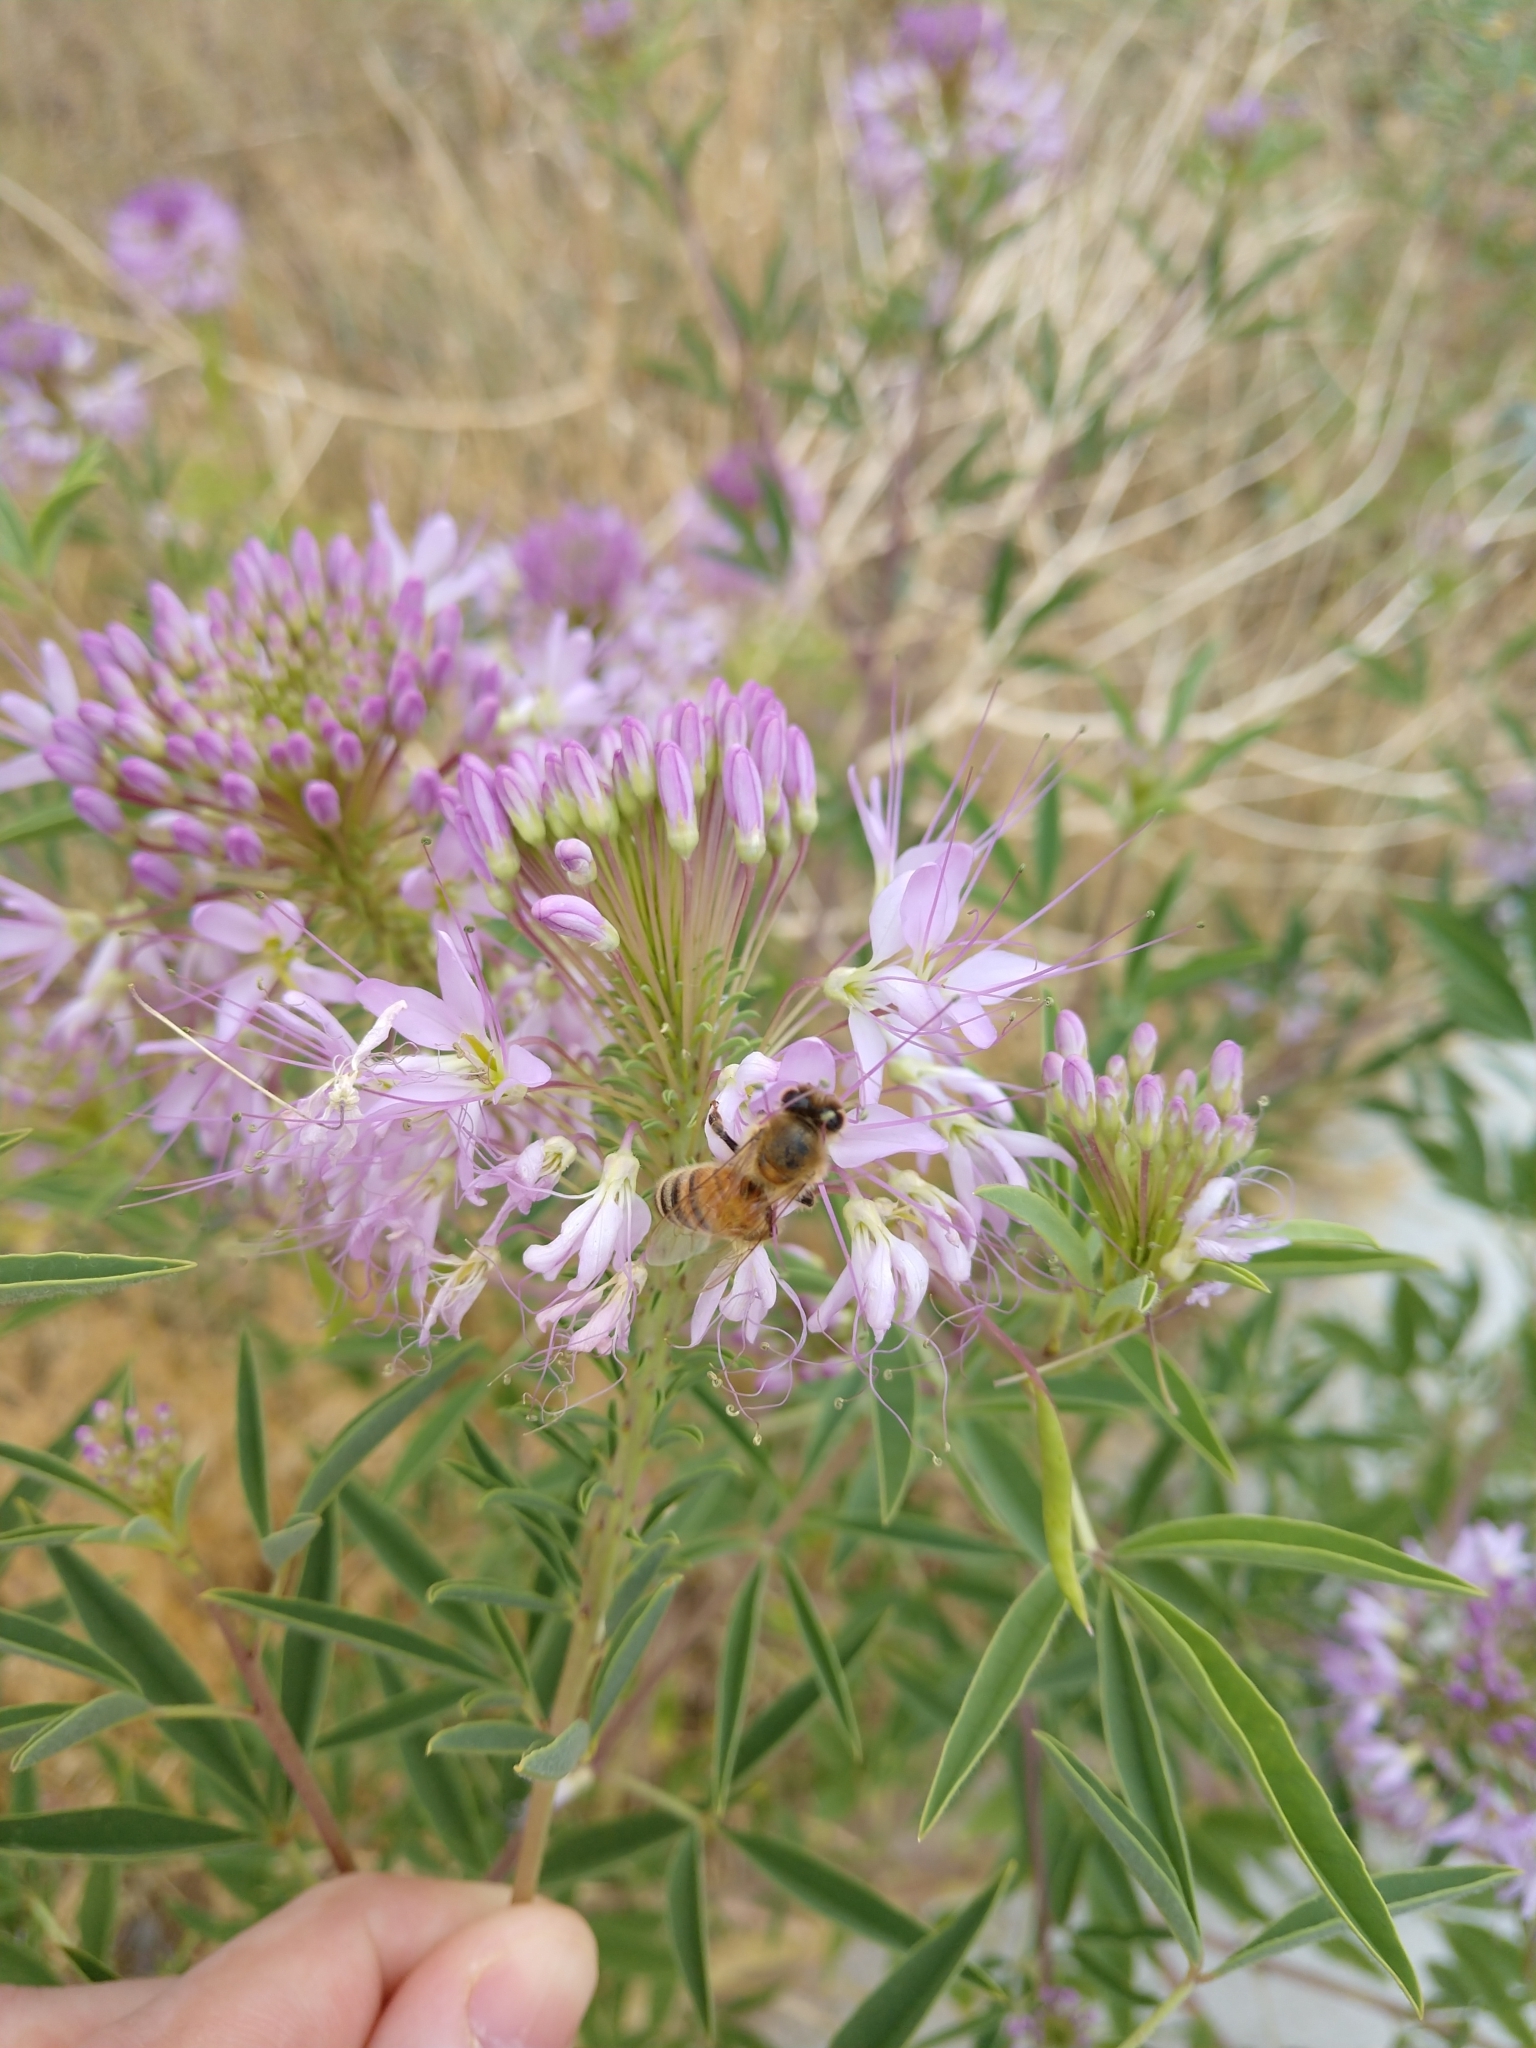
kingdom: Animalia
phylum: Arthropoda
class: Insecta
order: Hymenoptera
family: Apidae
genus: Apis
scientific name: Apis mellifera
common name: Honey bee
